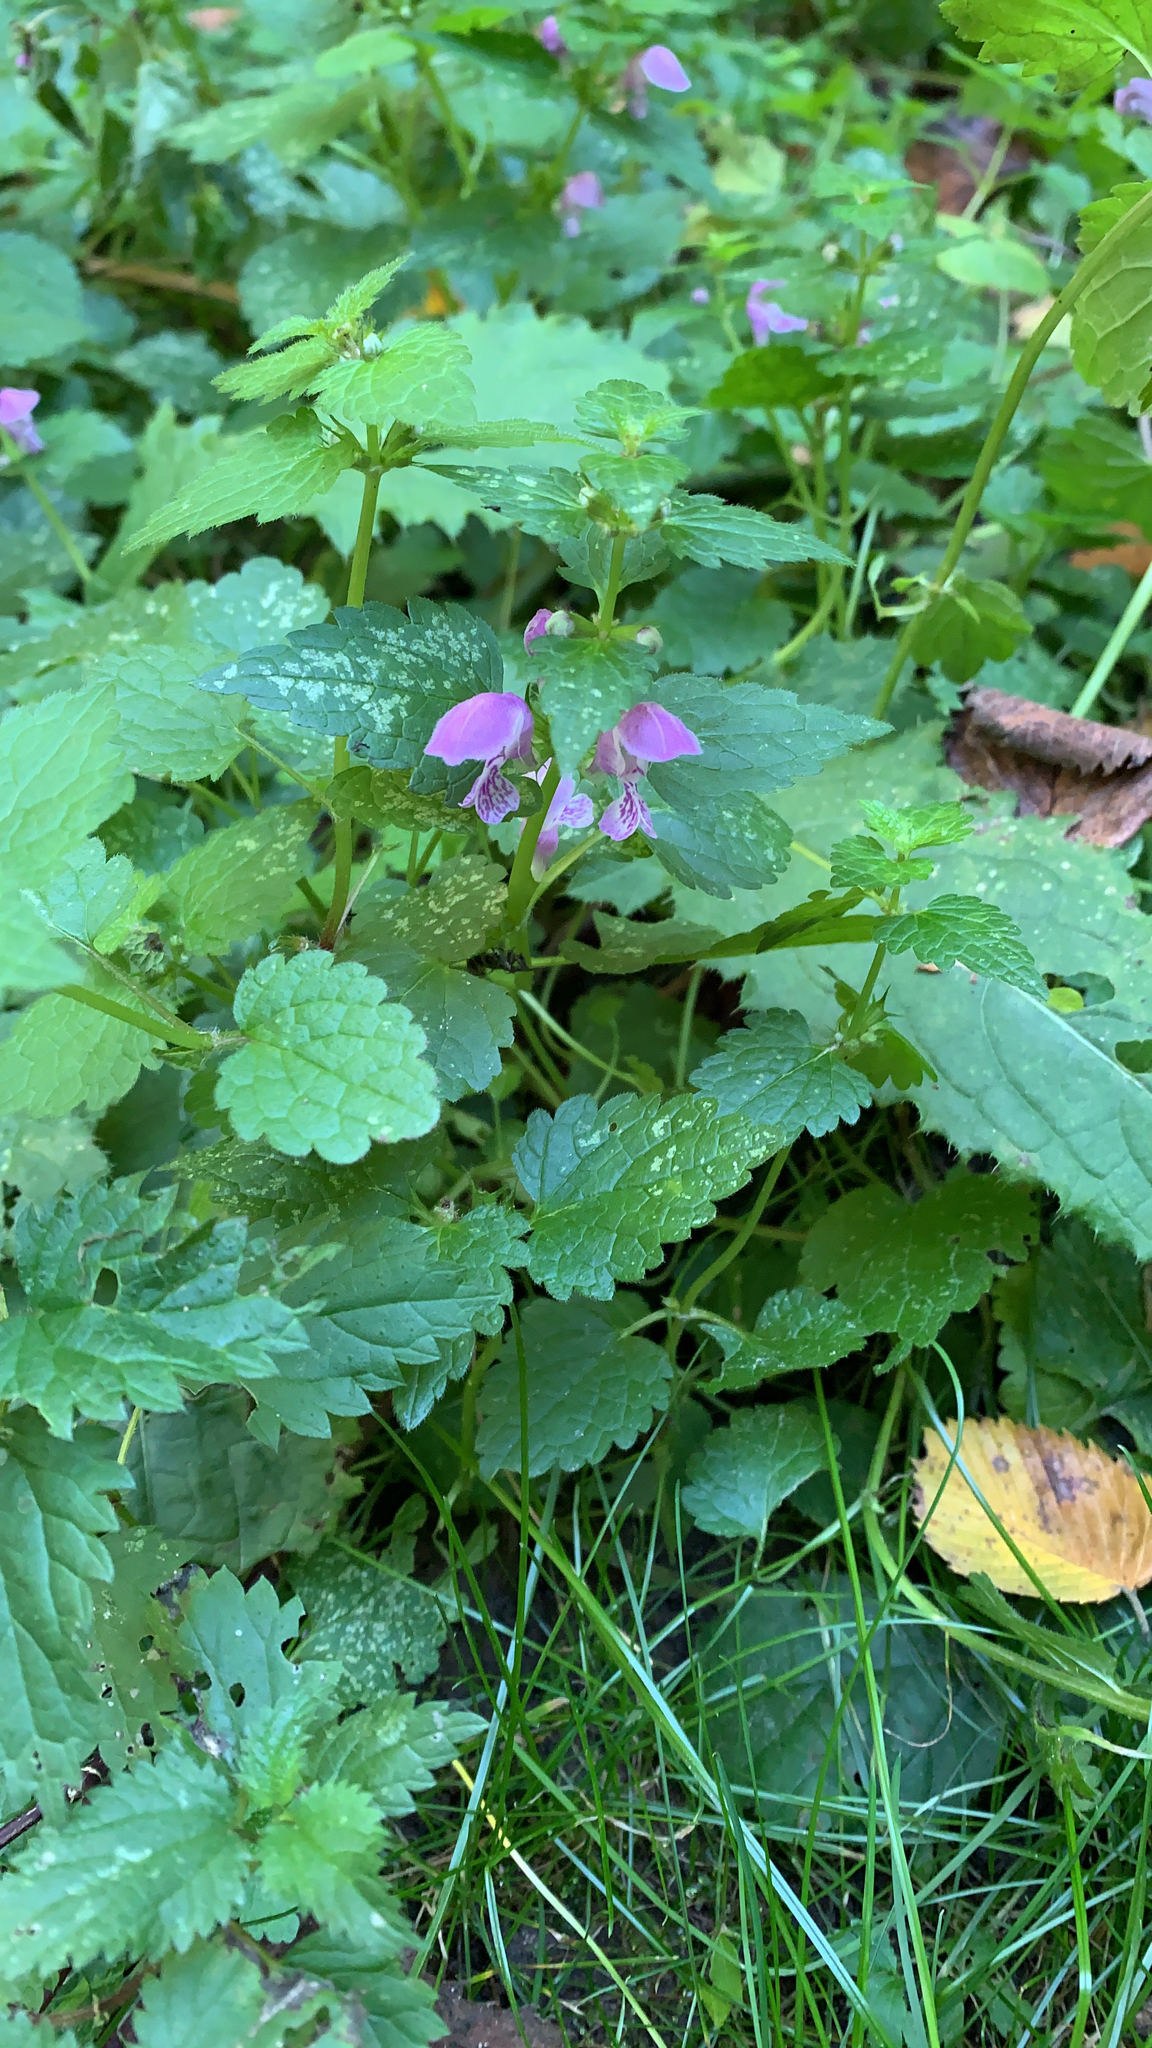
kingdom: Plantae
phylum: Tracheophyta
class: Magnoliopsida
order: Lamiales
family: Lamiaceae
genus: Lamium
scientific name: Lamium maculatum
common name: Spotted dead-nettle
